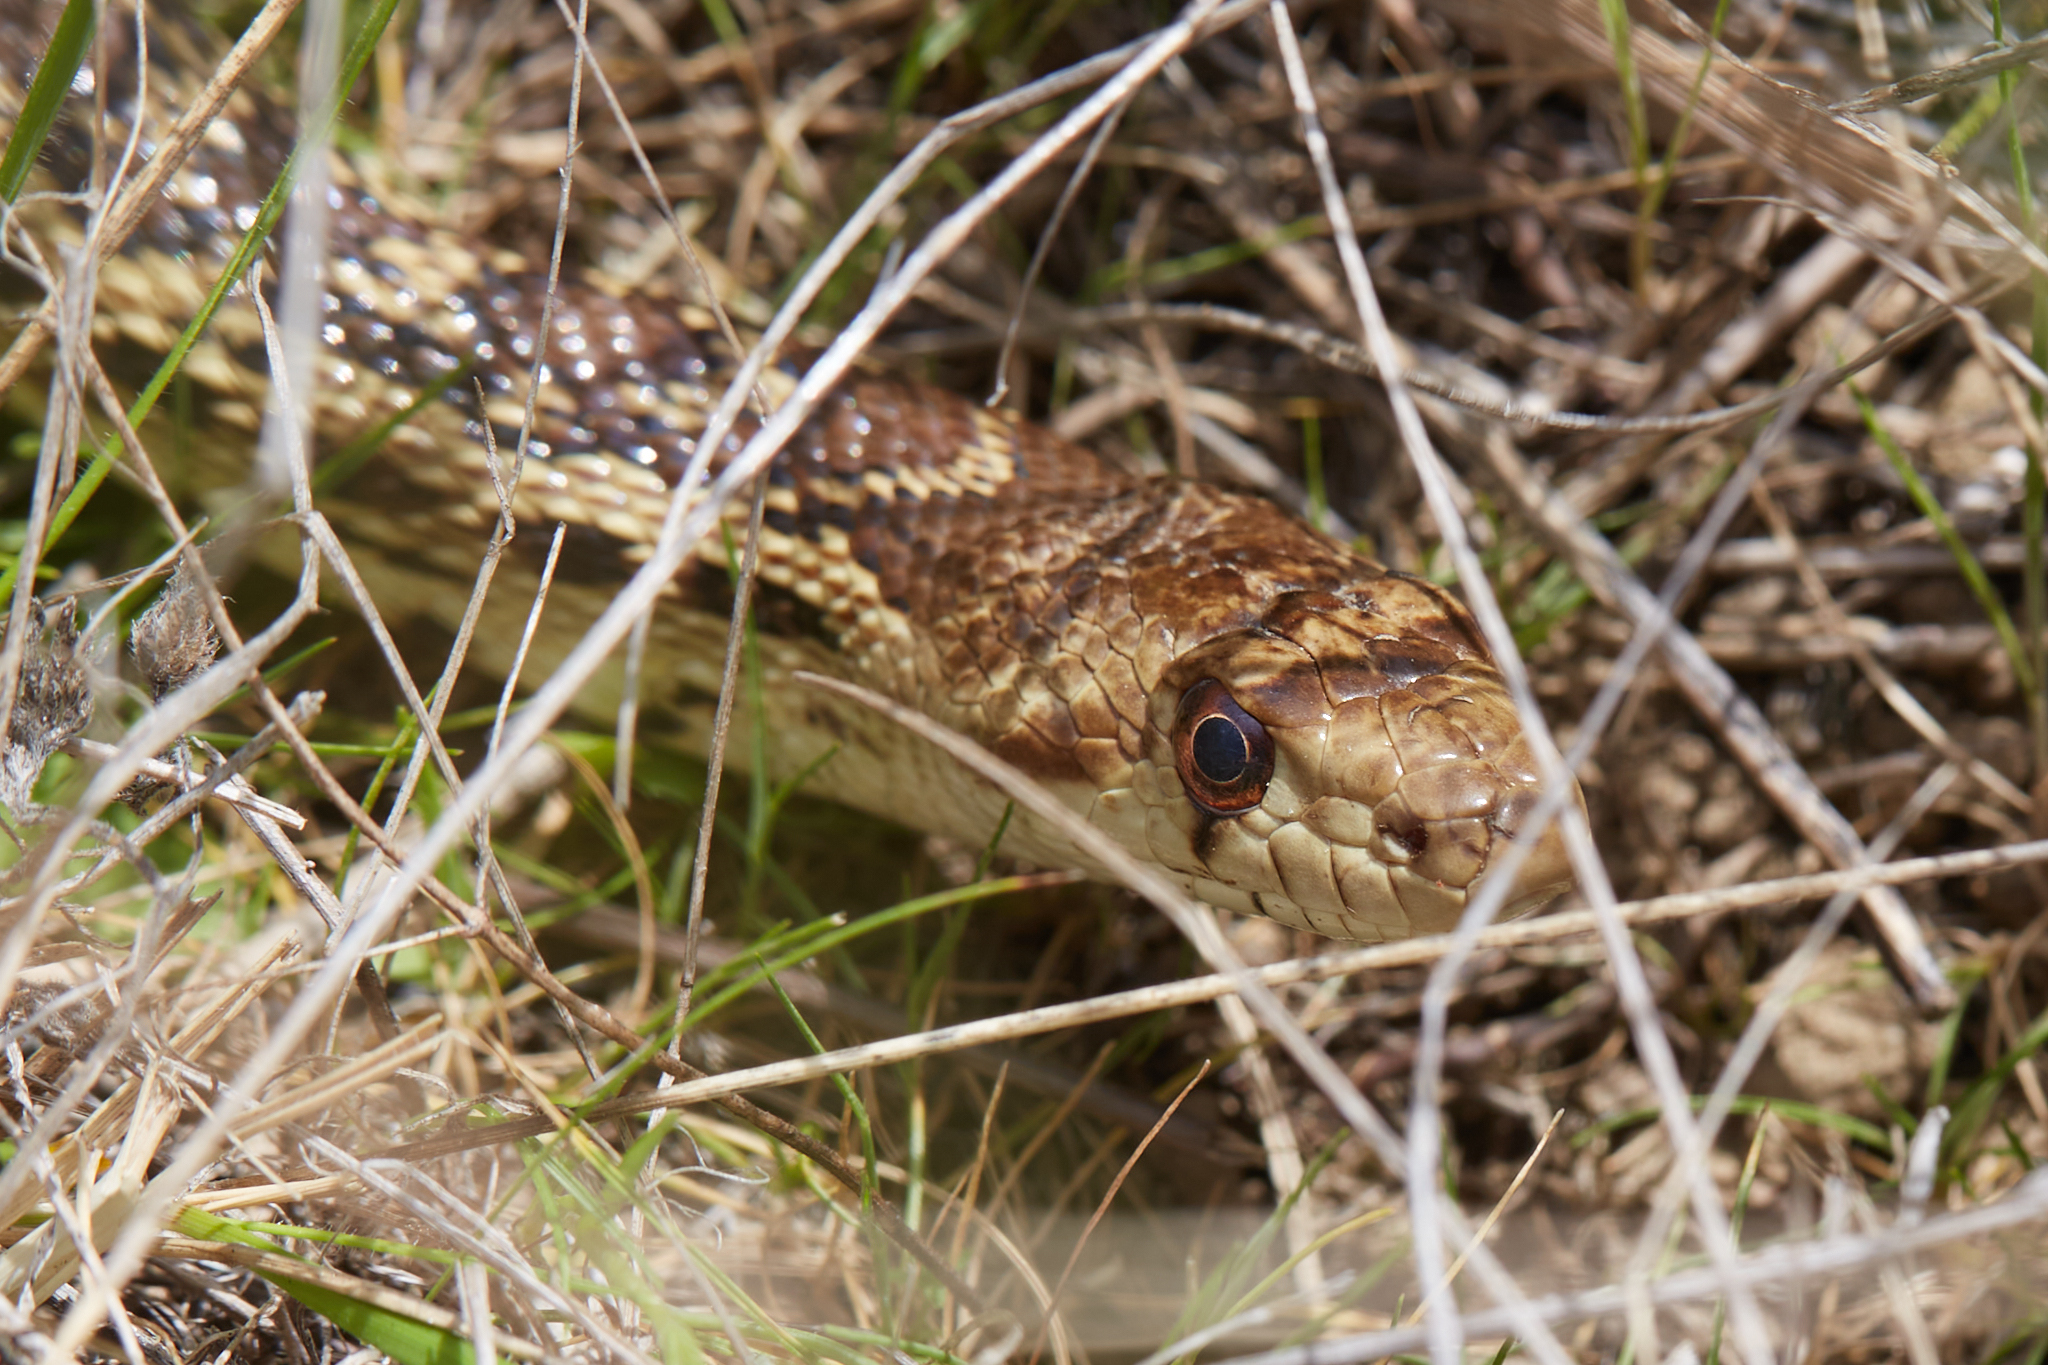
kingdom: Animalia
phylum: Chordata
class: Squamata
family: Colubridae
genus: Pituophis
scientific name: Pituophis catenifer
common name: Gopher snake
